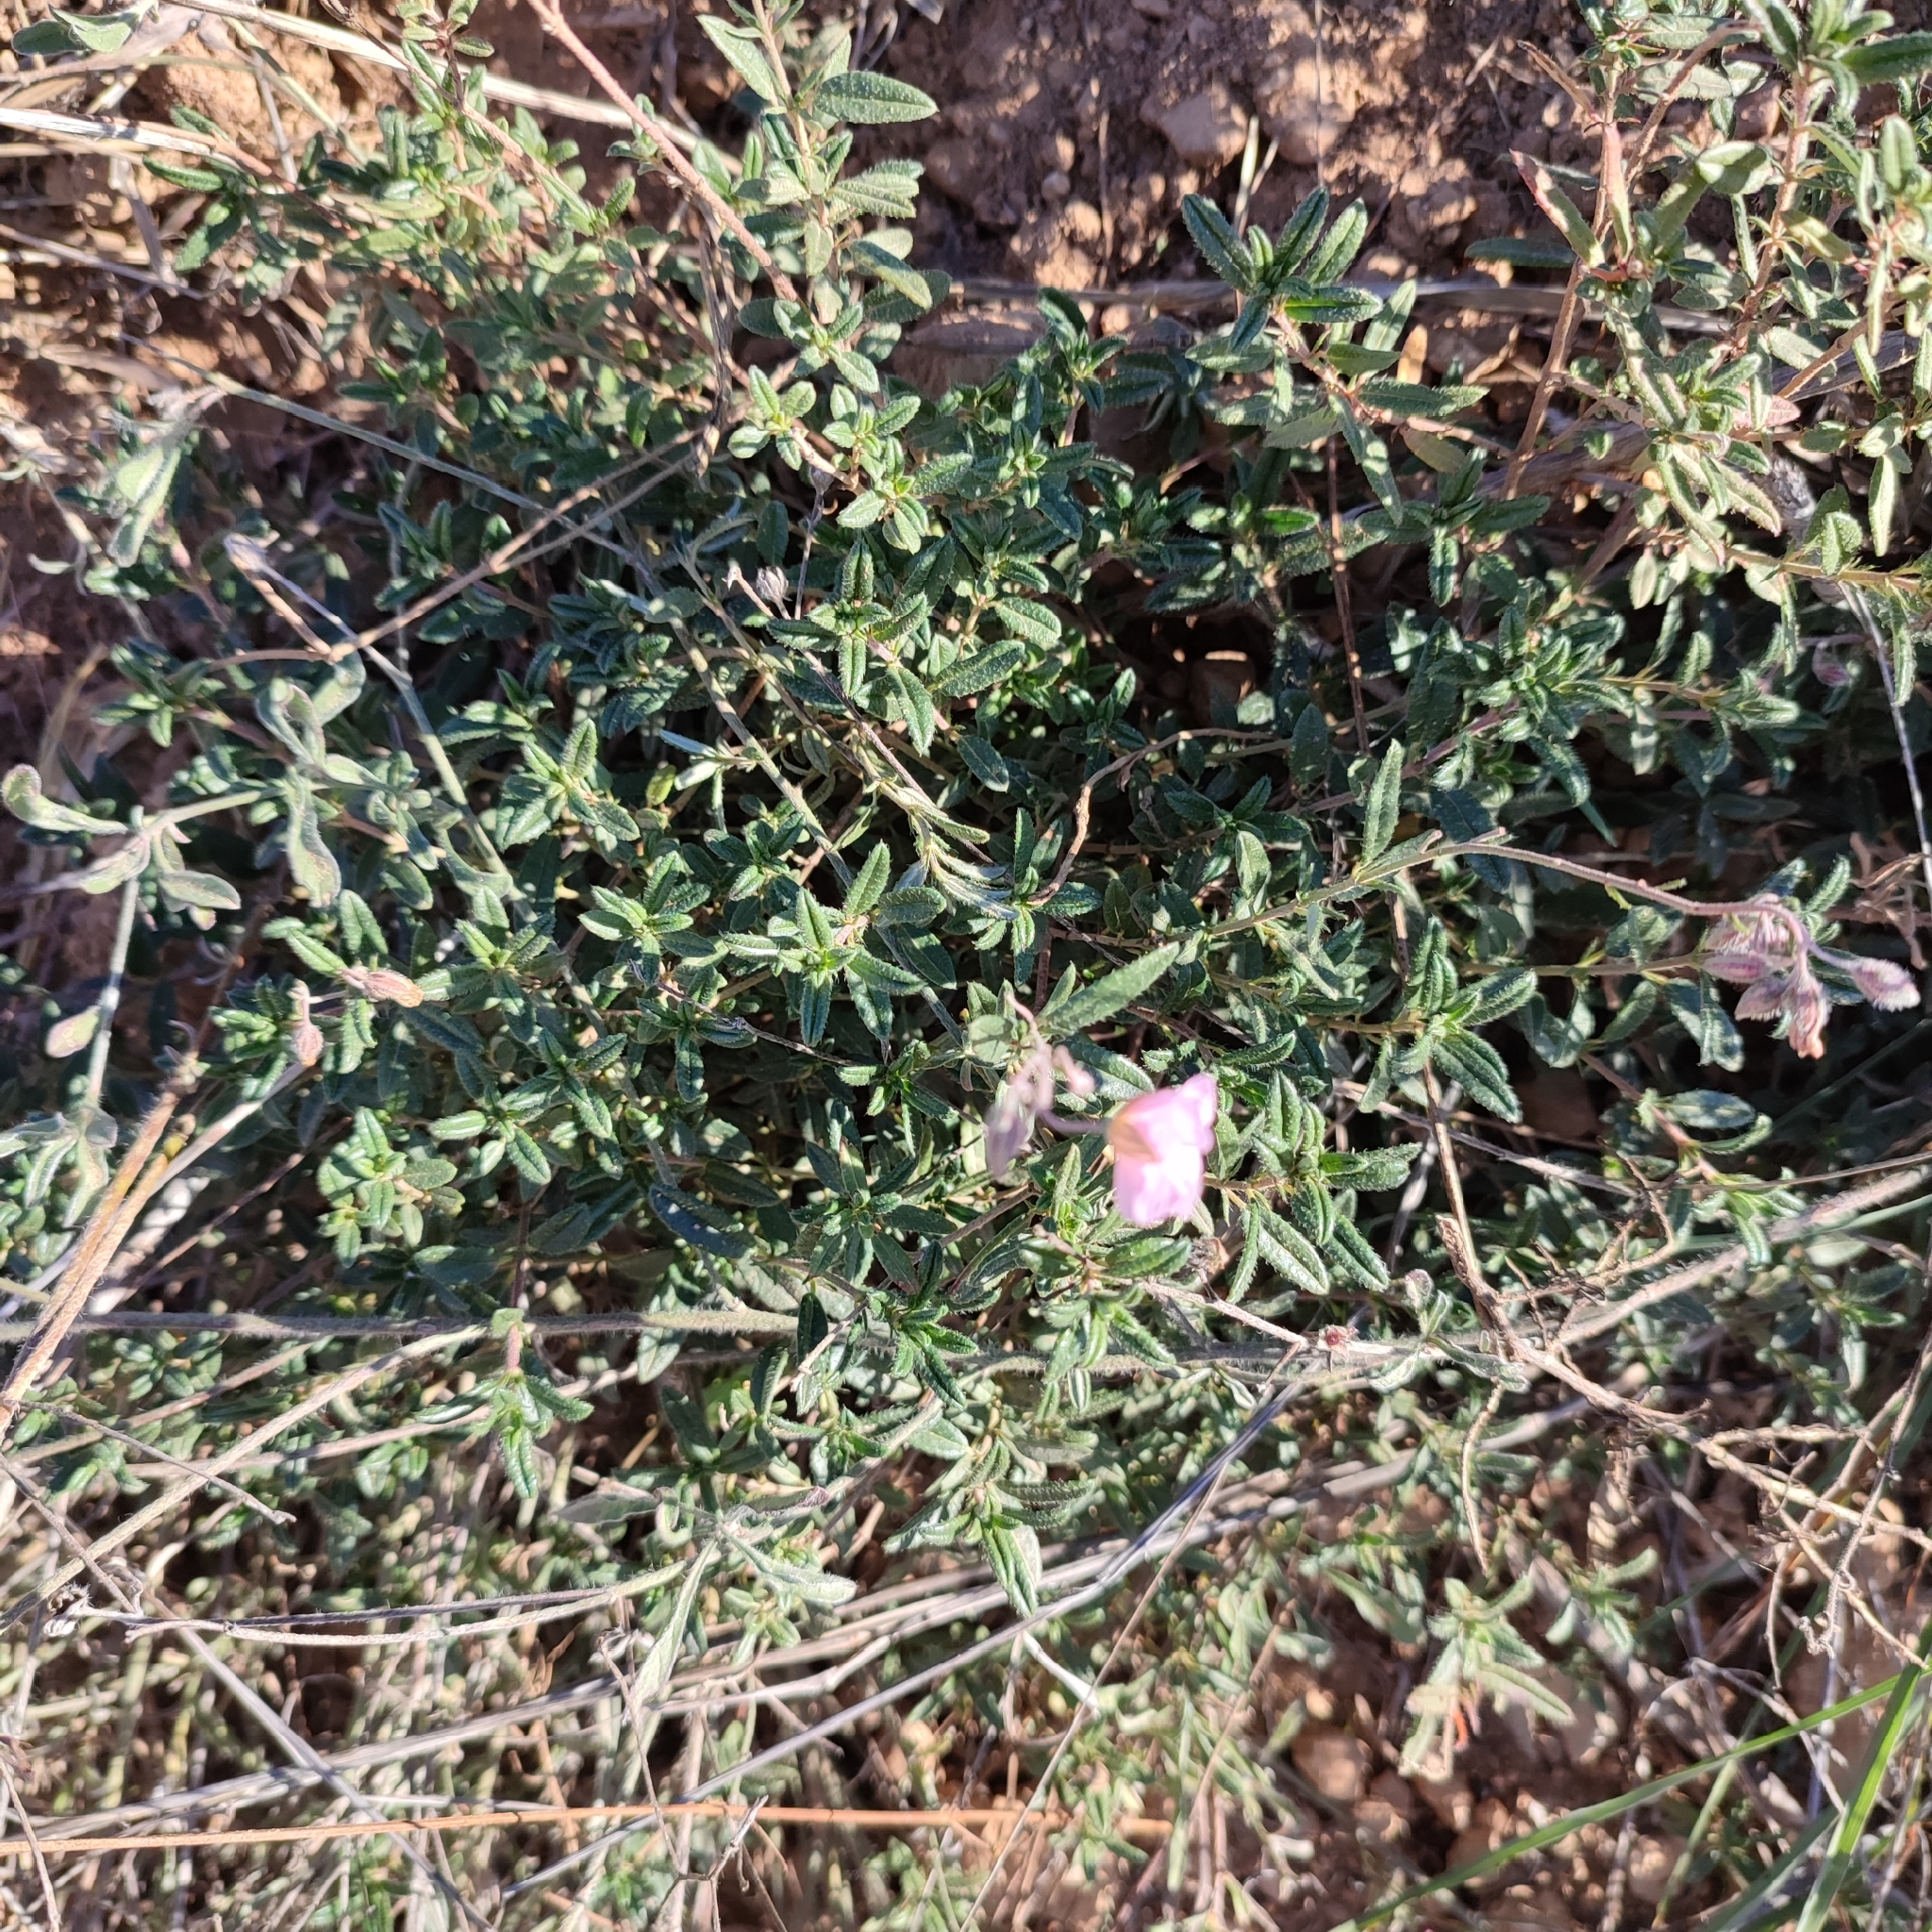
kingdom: Plantae
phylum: Tracheophyta
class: Magnoliopsida
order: Malvales
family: Cistaceae
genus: Helianthemum
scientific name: Helianthemum nummularium
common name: Common rock-rose
